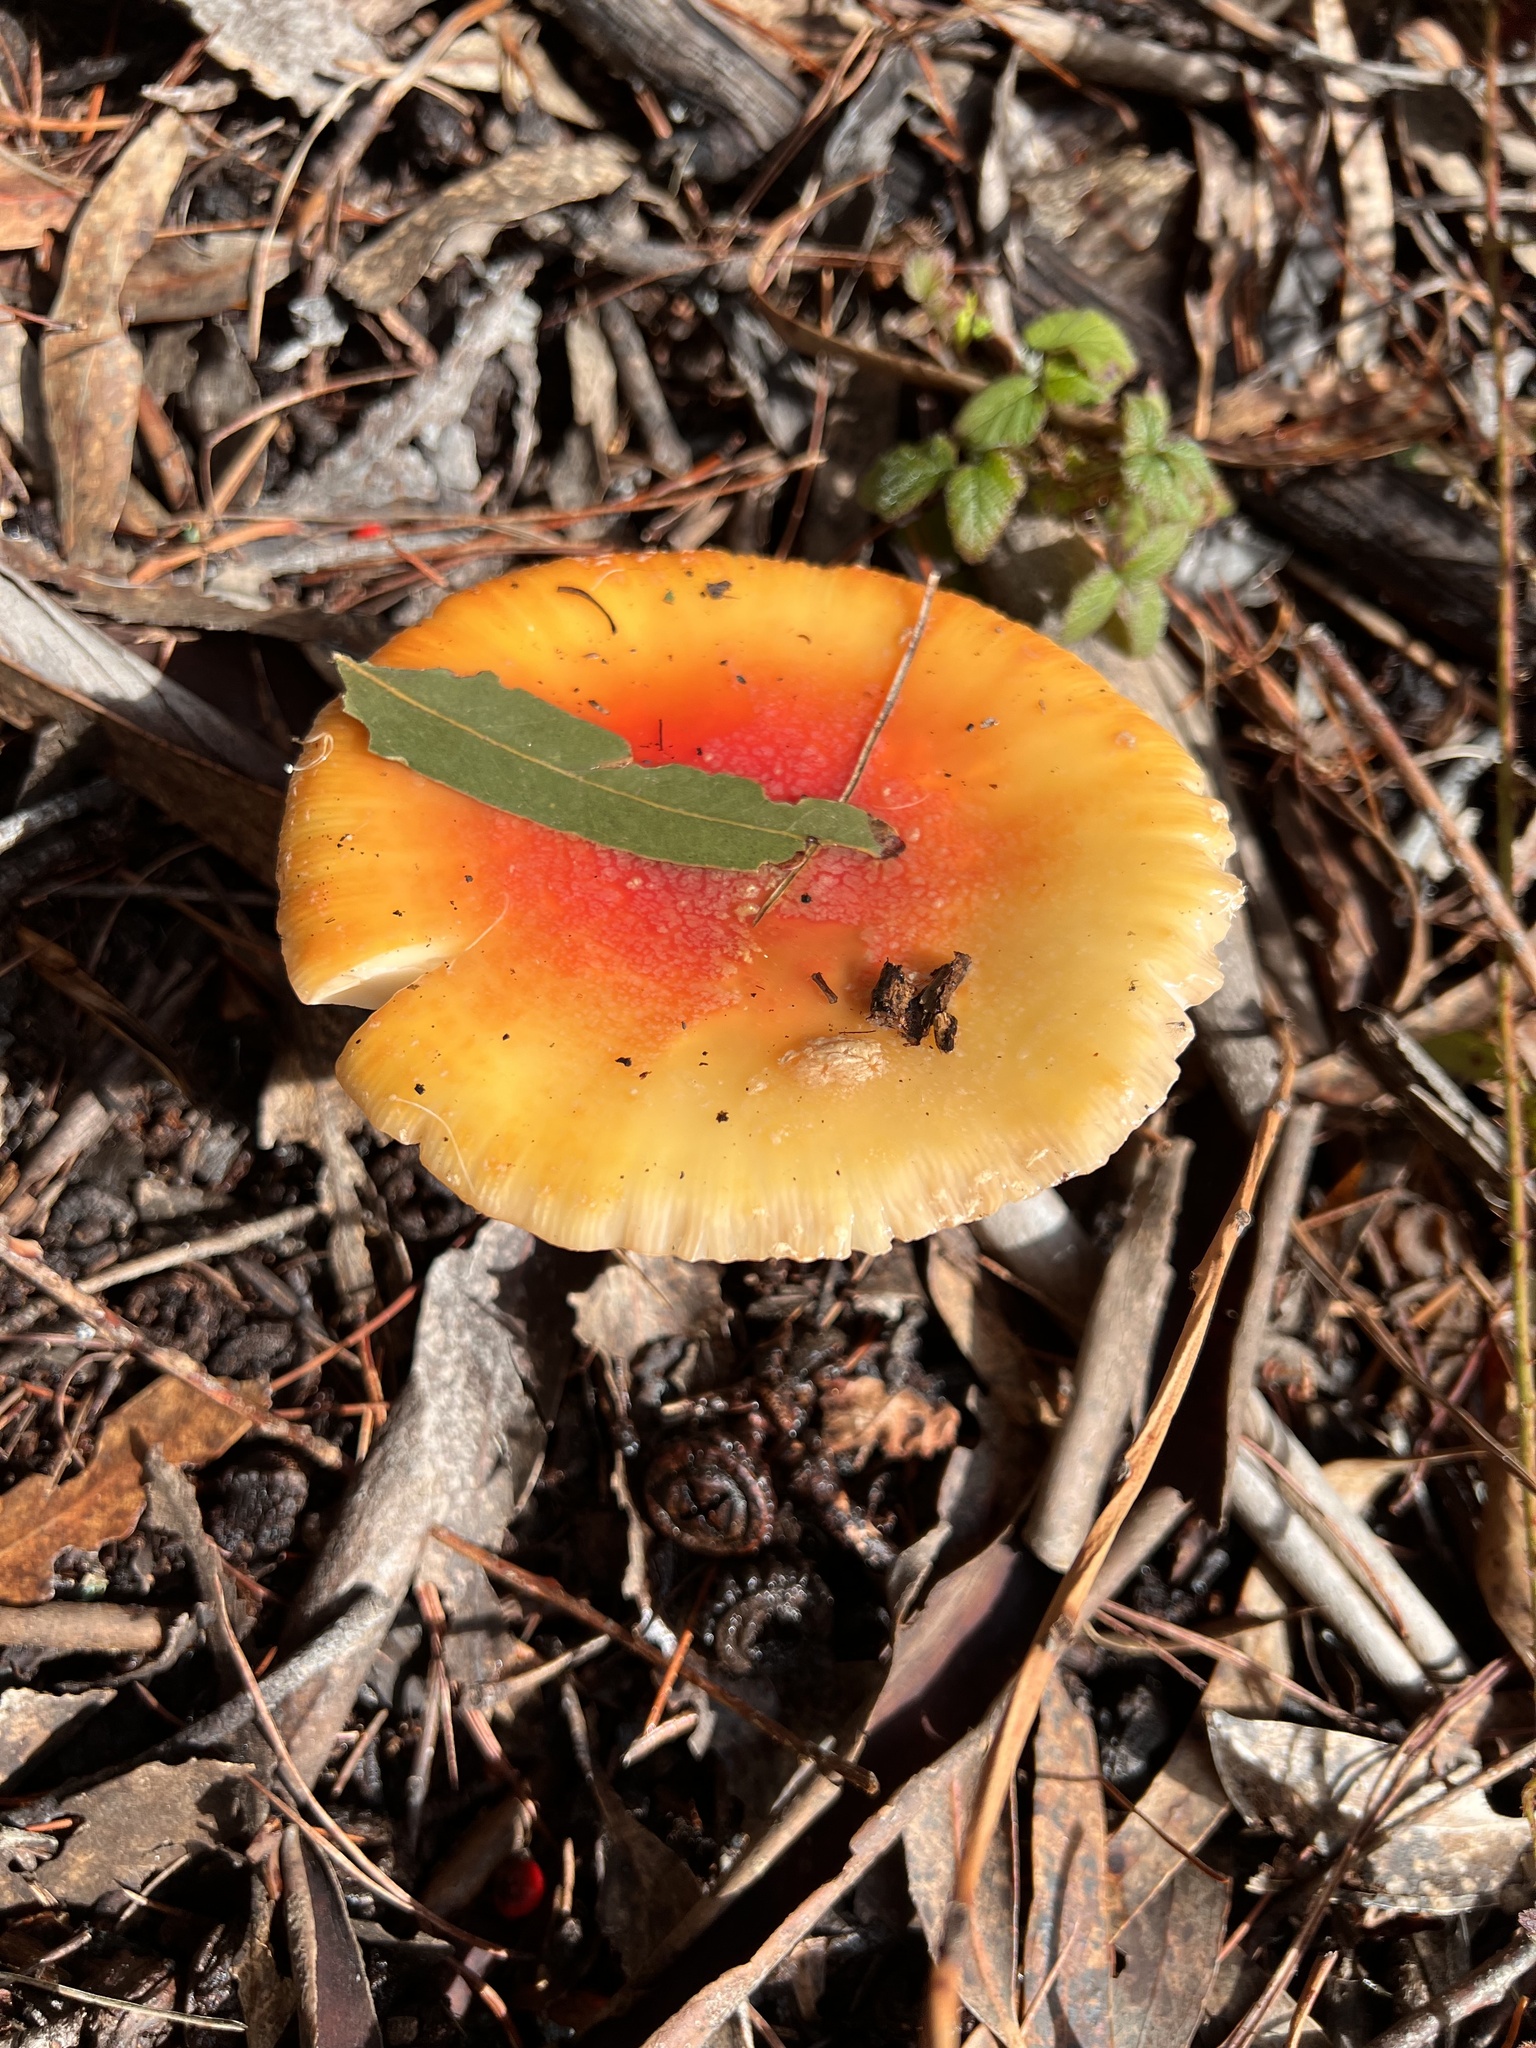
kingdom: Fungi
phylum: Basidiomycota
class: Agaricomycetes
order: Agaricales
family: Amanitaceae
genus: Amanita
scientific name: Amanita muscaria
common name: Fly agaric
